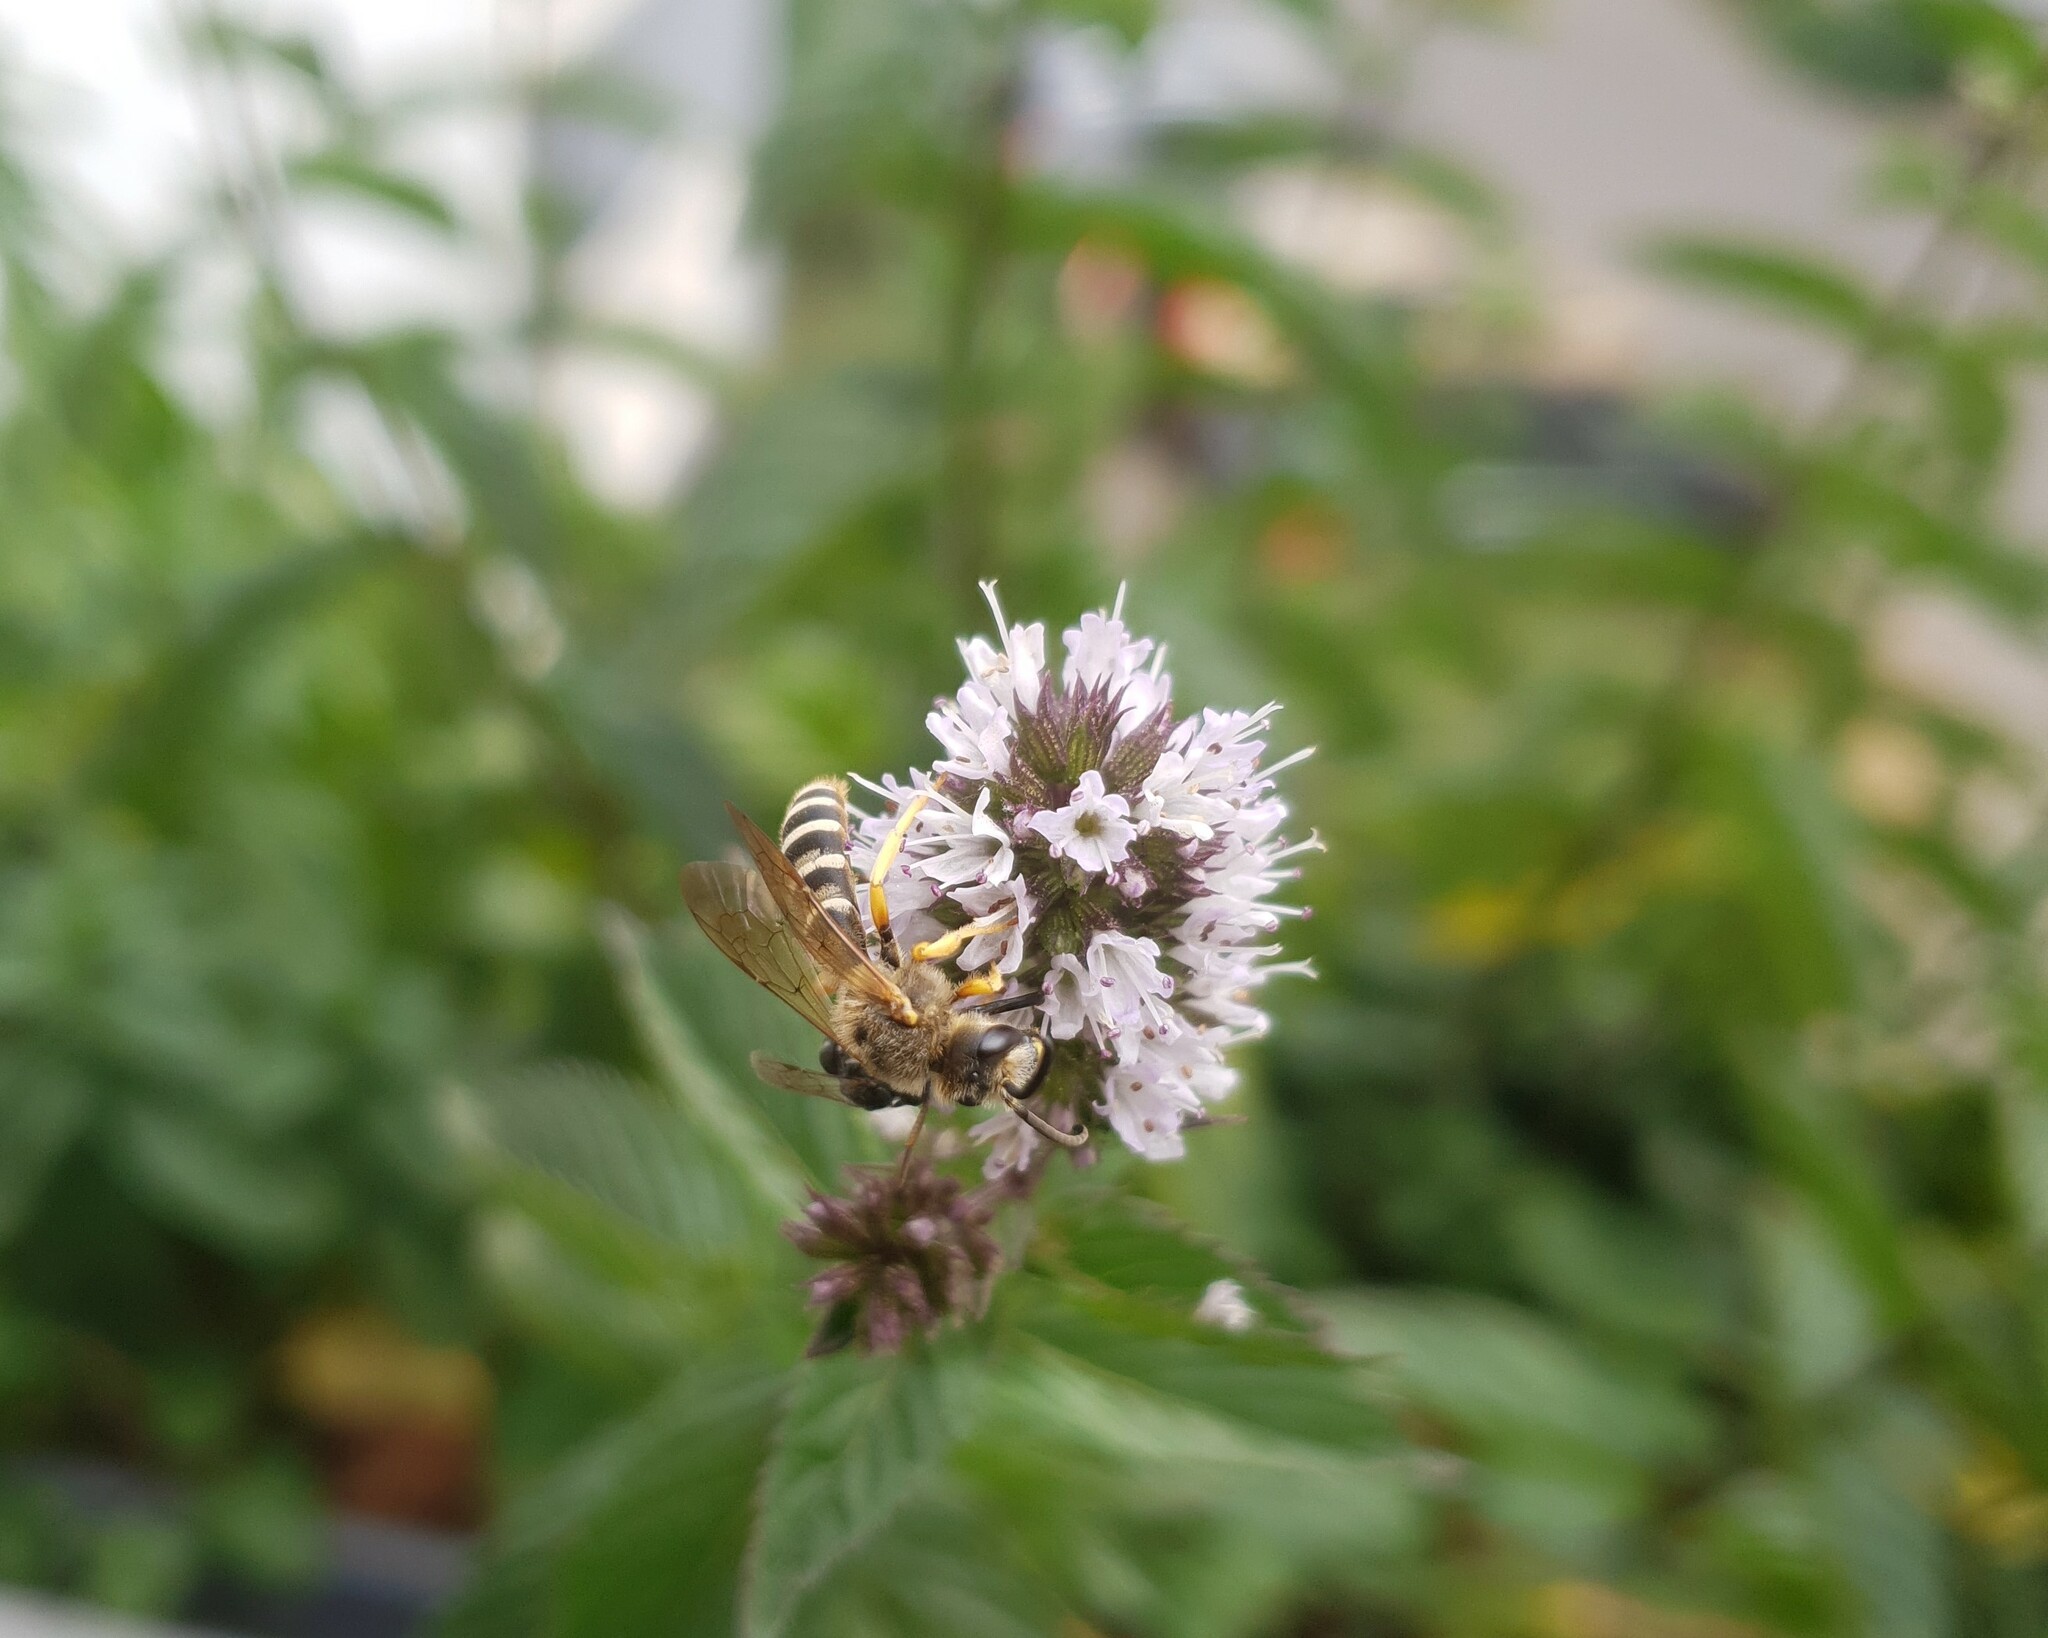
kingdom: Animalia
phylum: Arthropoda
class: Insecta
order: Hymenoptera
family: Halictidae
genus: Halictus
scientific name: Halictus scabiosae
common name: Great banded furrow bee
